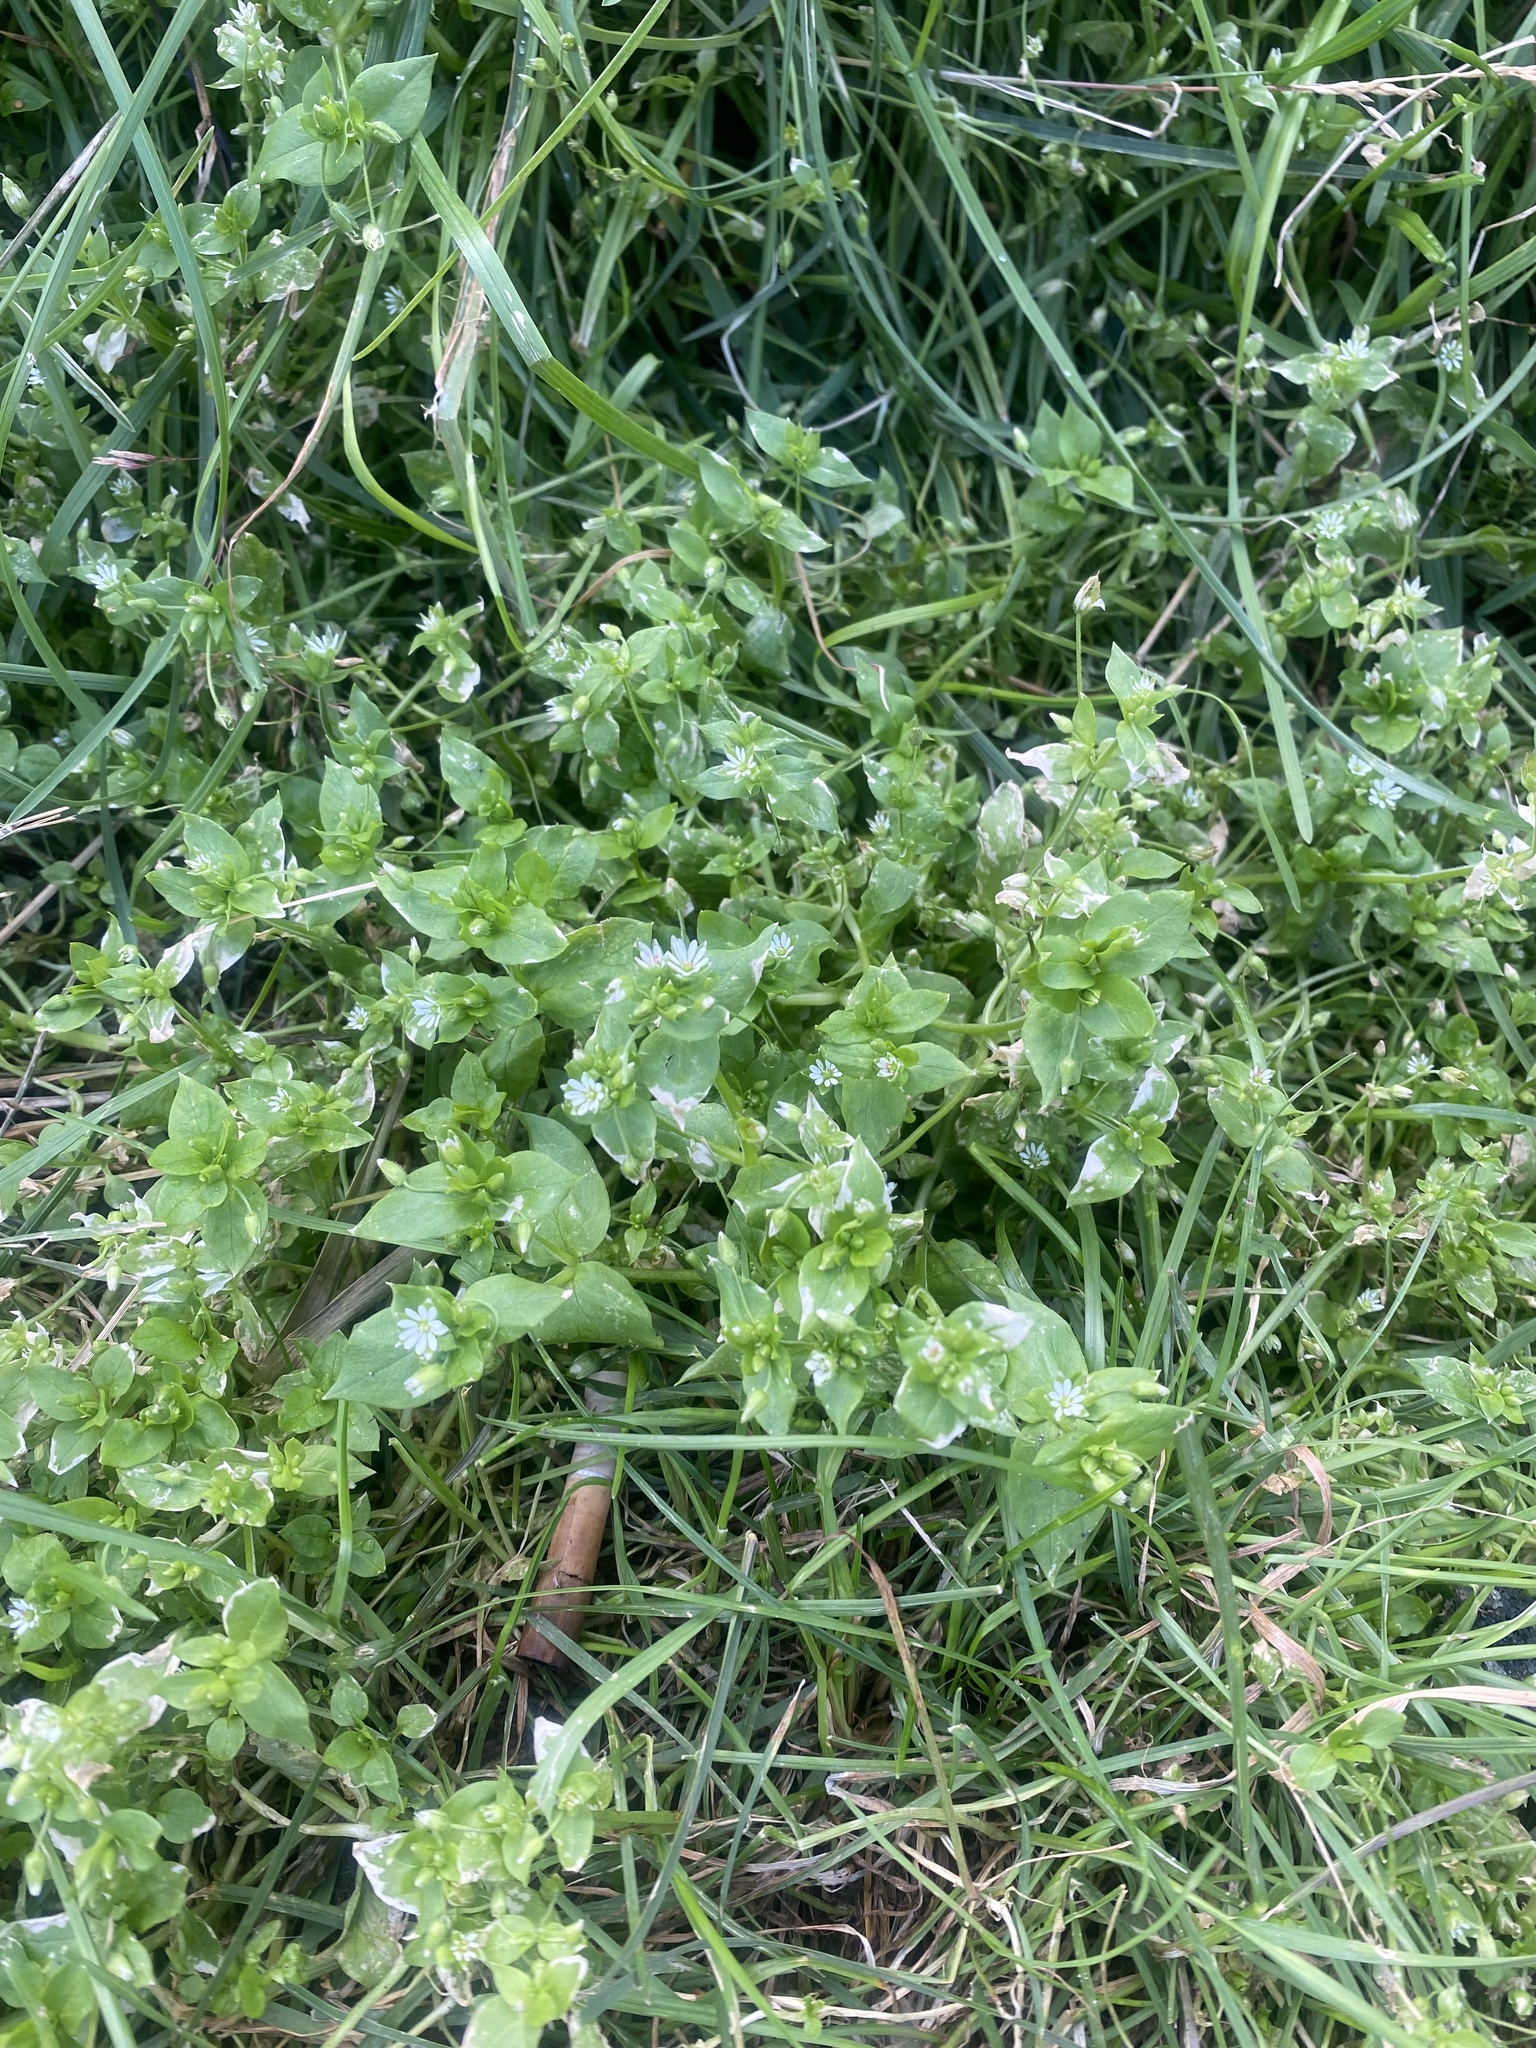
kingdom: Plantae
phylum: Tracheophyta
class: Magnoliopsida
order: Caryophyllales
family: Caryophyllaceae
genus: Stellaria
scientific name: Stellaria media
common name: Common chickweed
